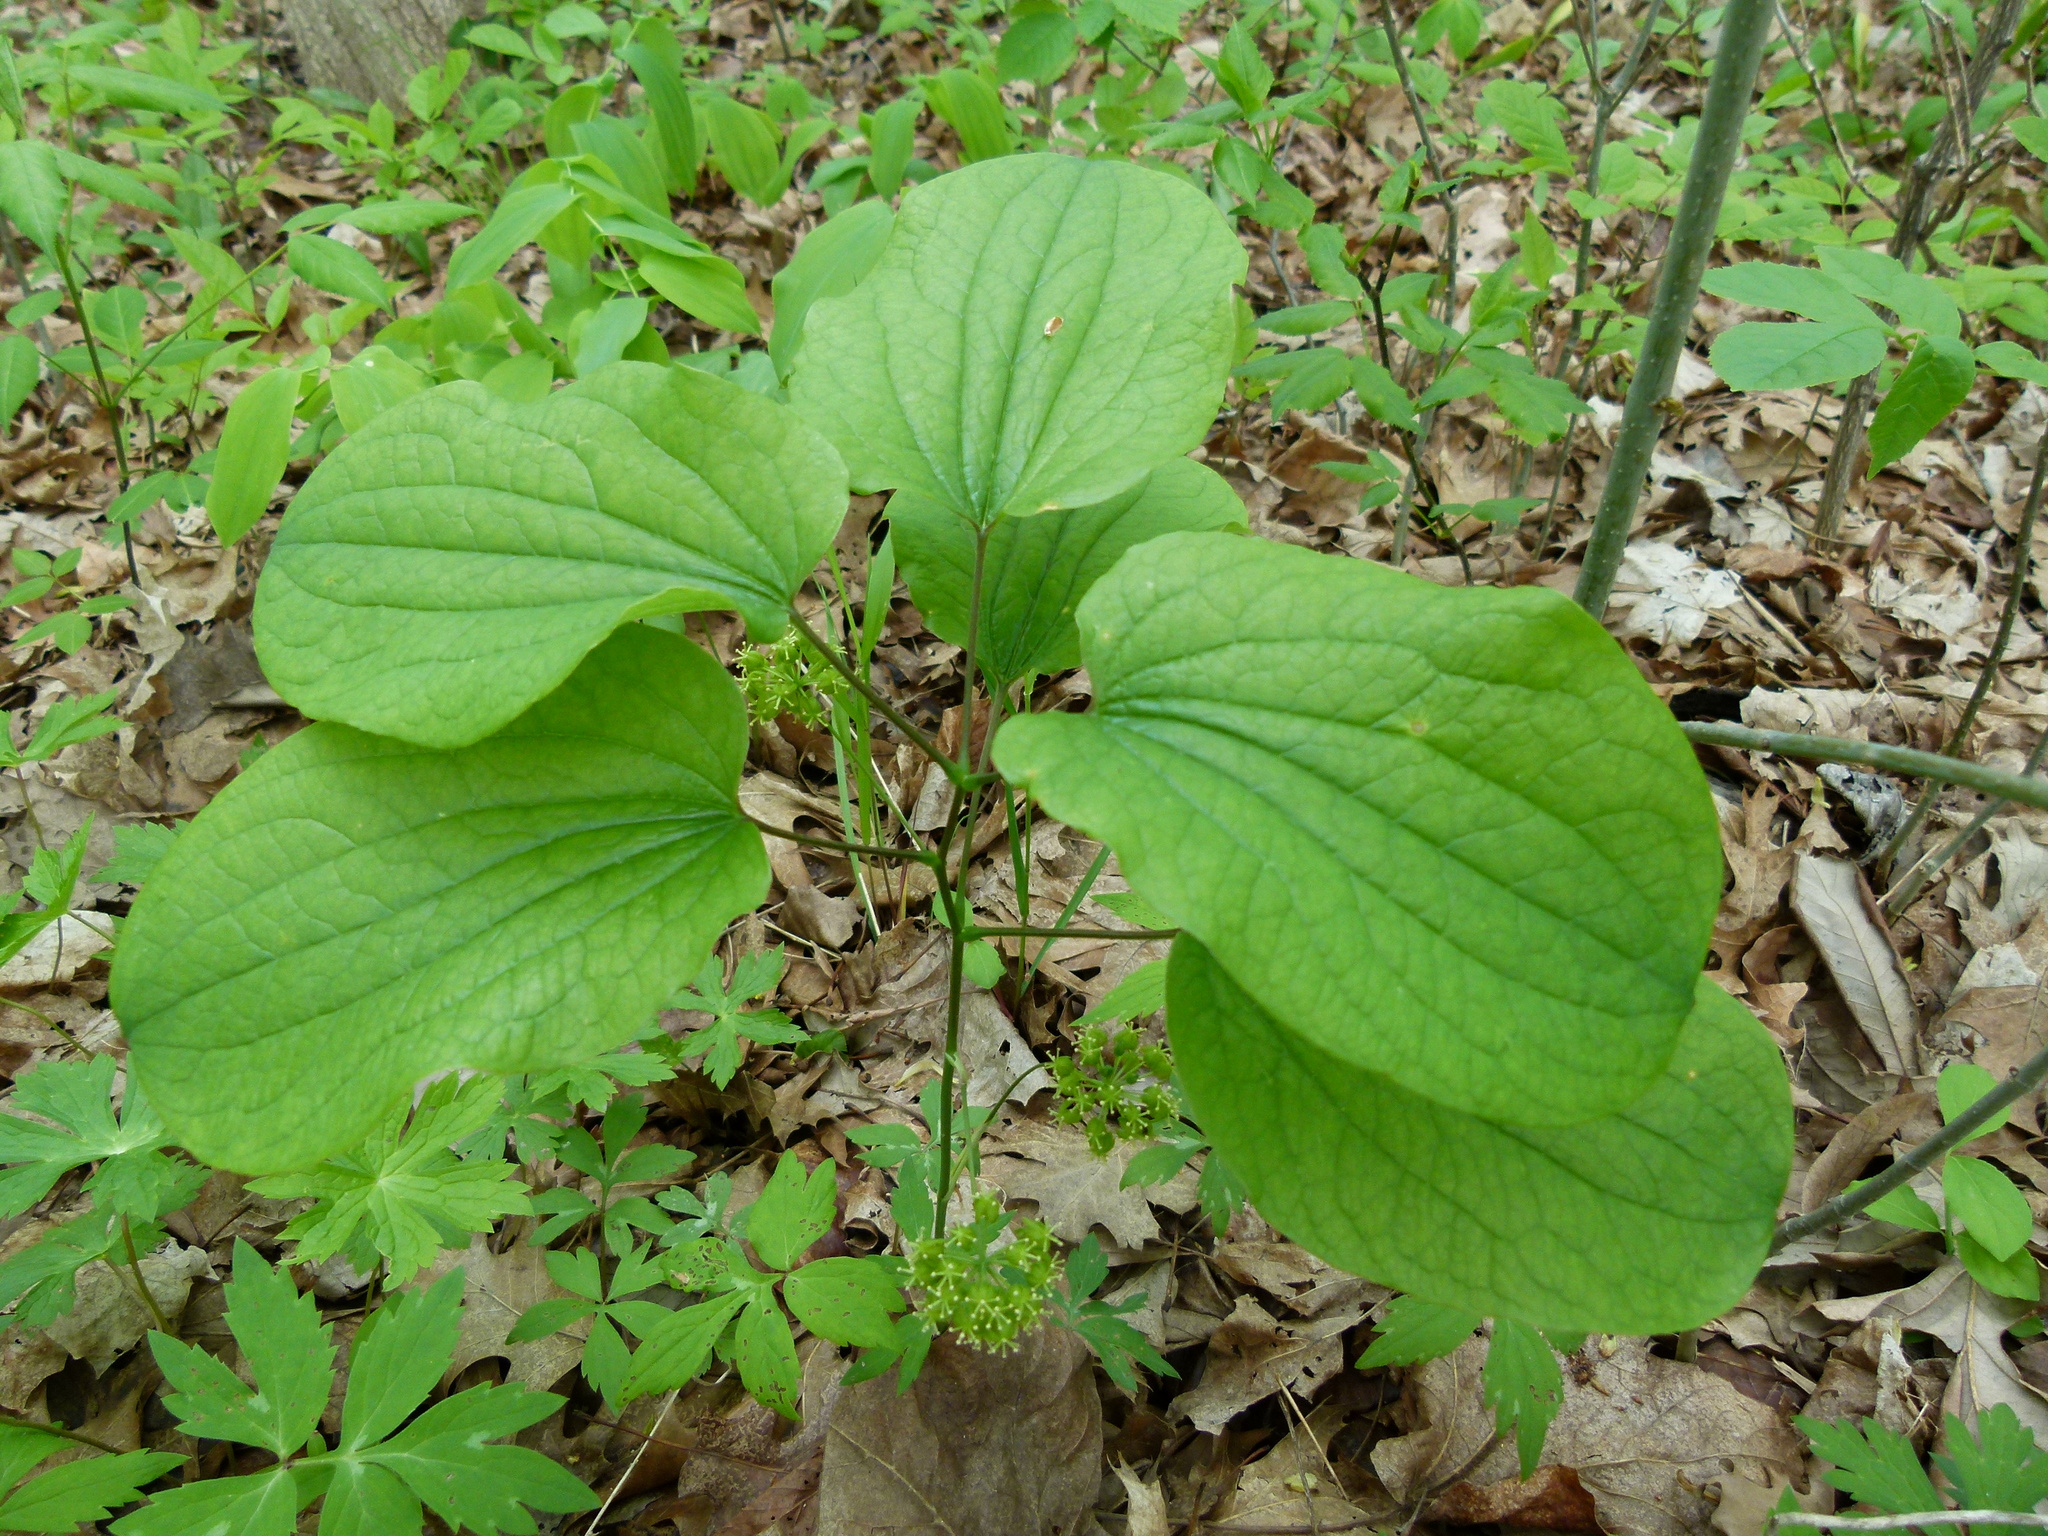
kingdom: Plantae
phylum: Tracheophyta
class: Liliopsida
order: Liliales
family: Smilacaceae
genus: Smilax
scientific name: Smilax ecirrhata
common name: Upright carrionflower
